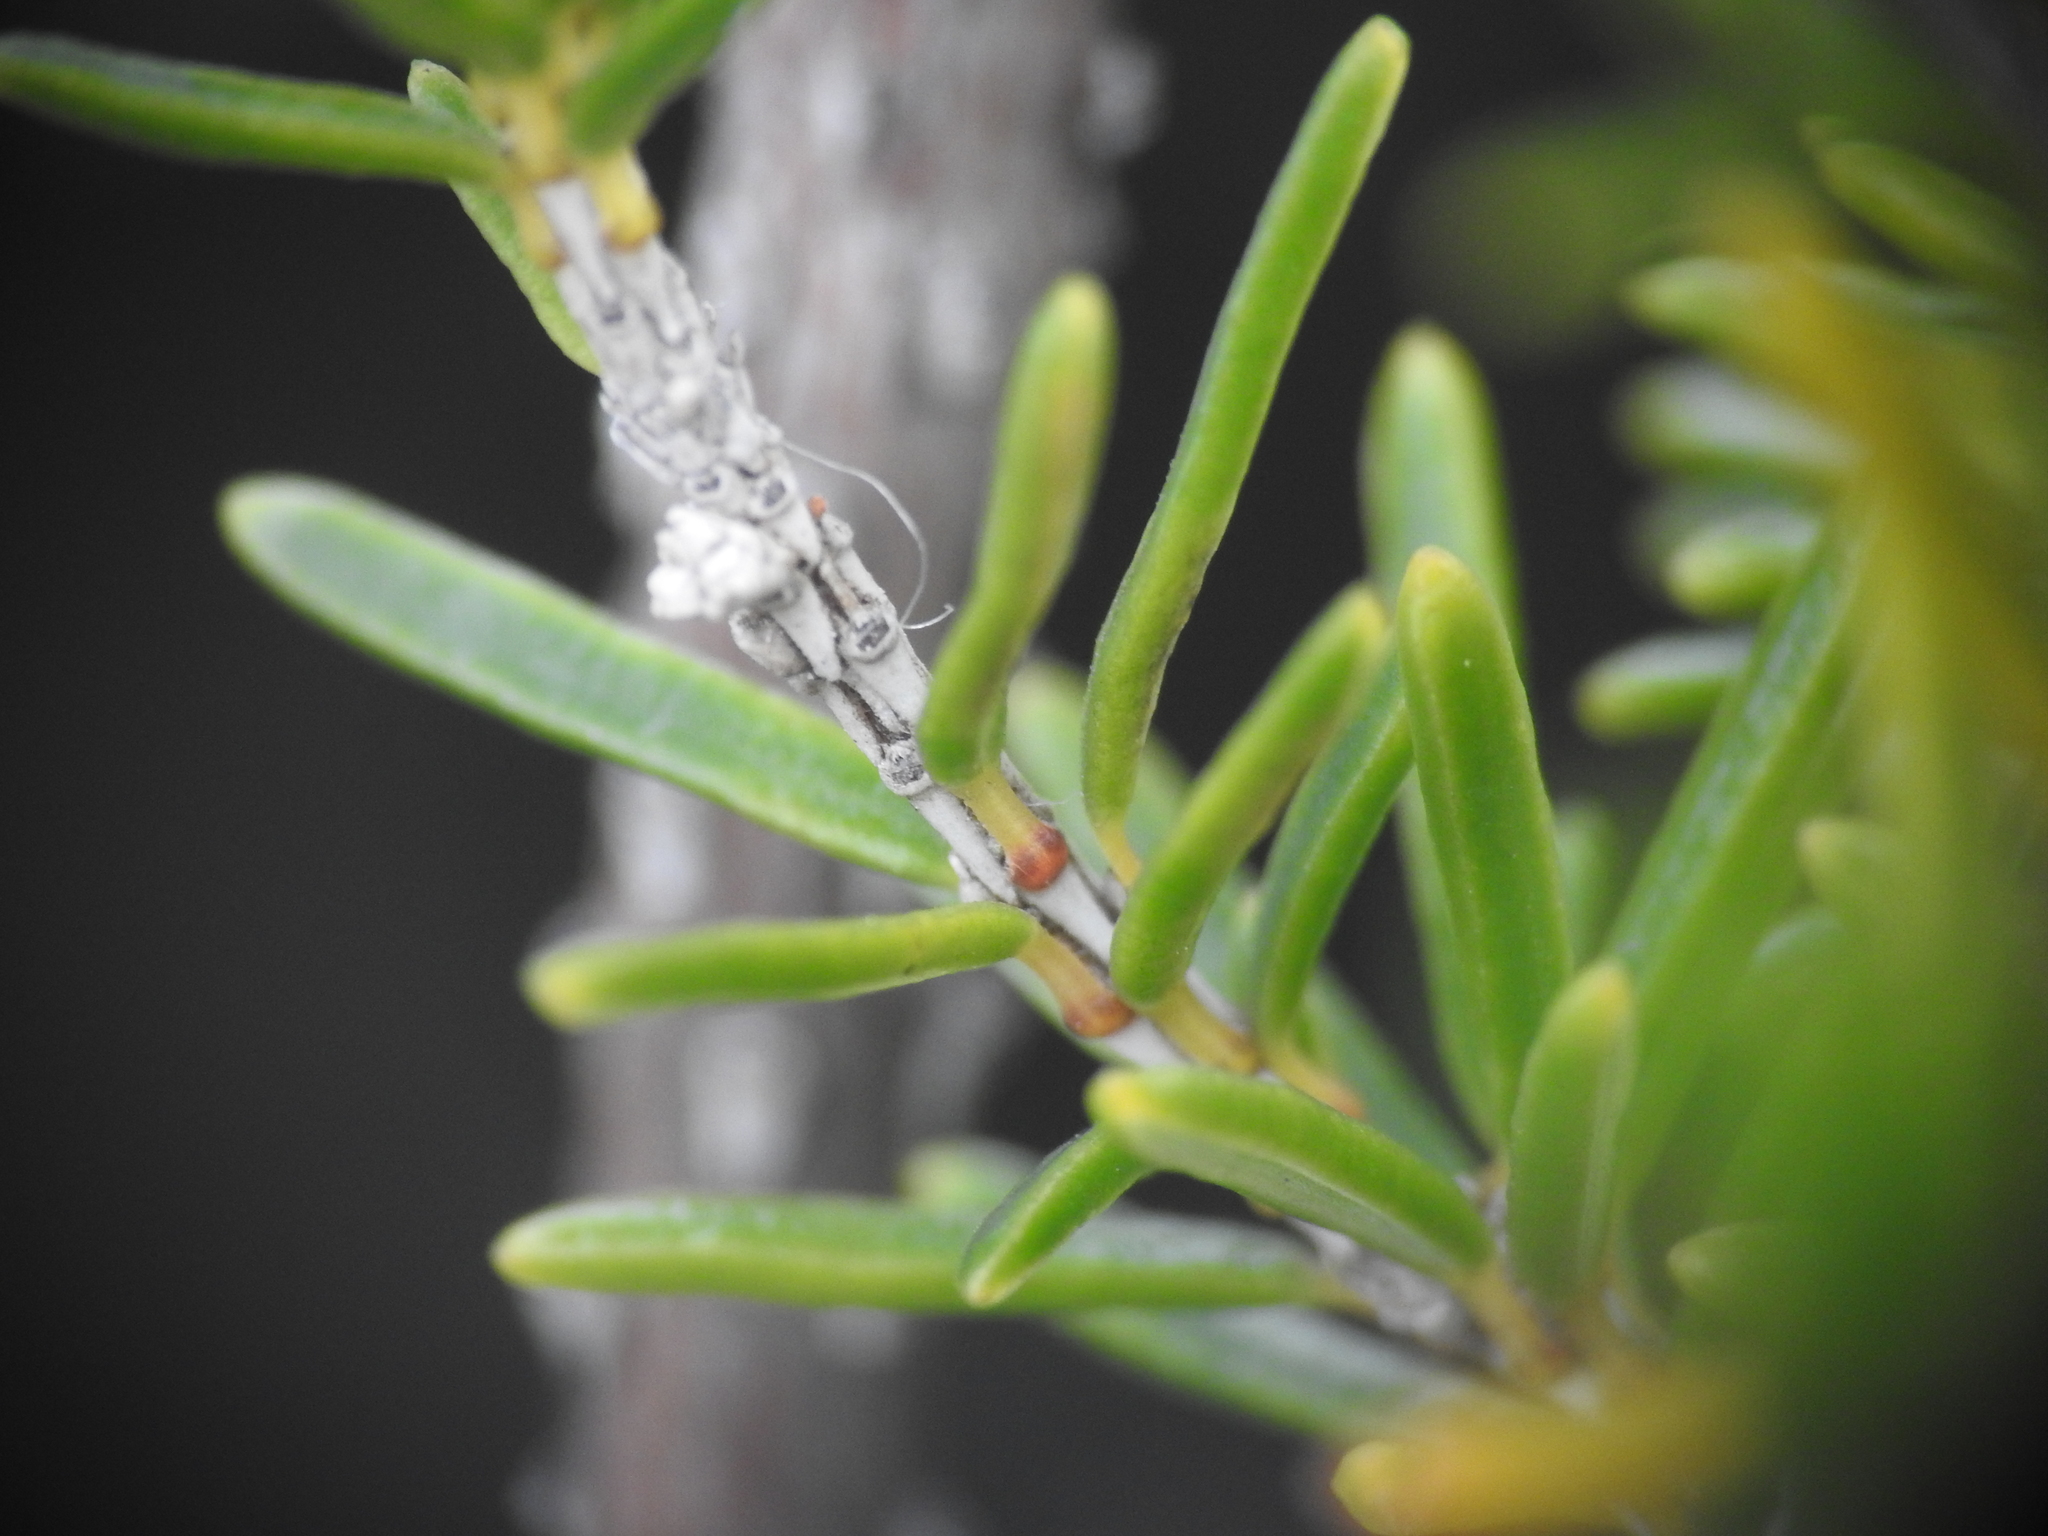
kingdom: Plantae
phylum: Tracheophyta
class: Magnoliopsida
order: Ericales
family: Ericaceae
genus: Erica
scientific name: Erica multiflora
